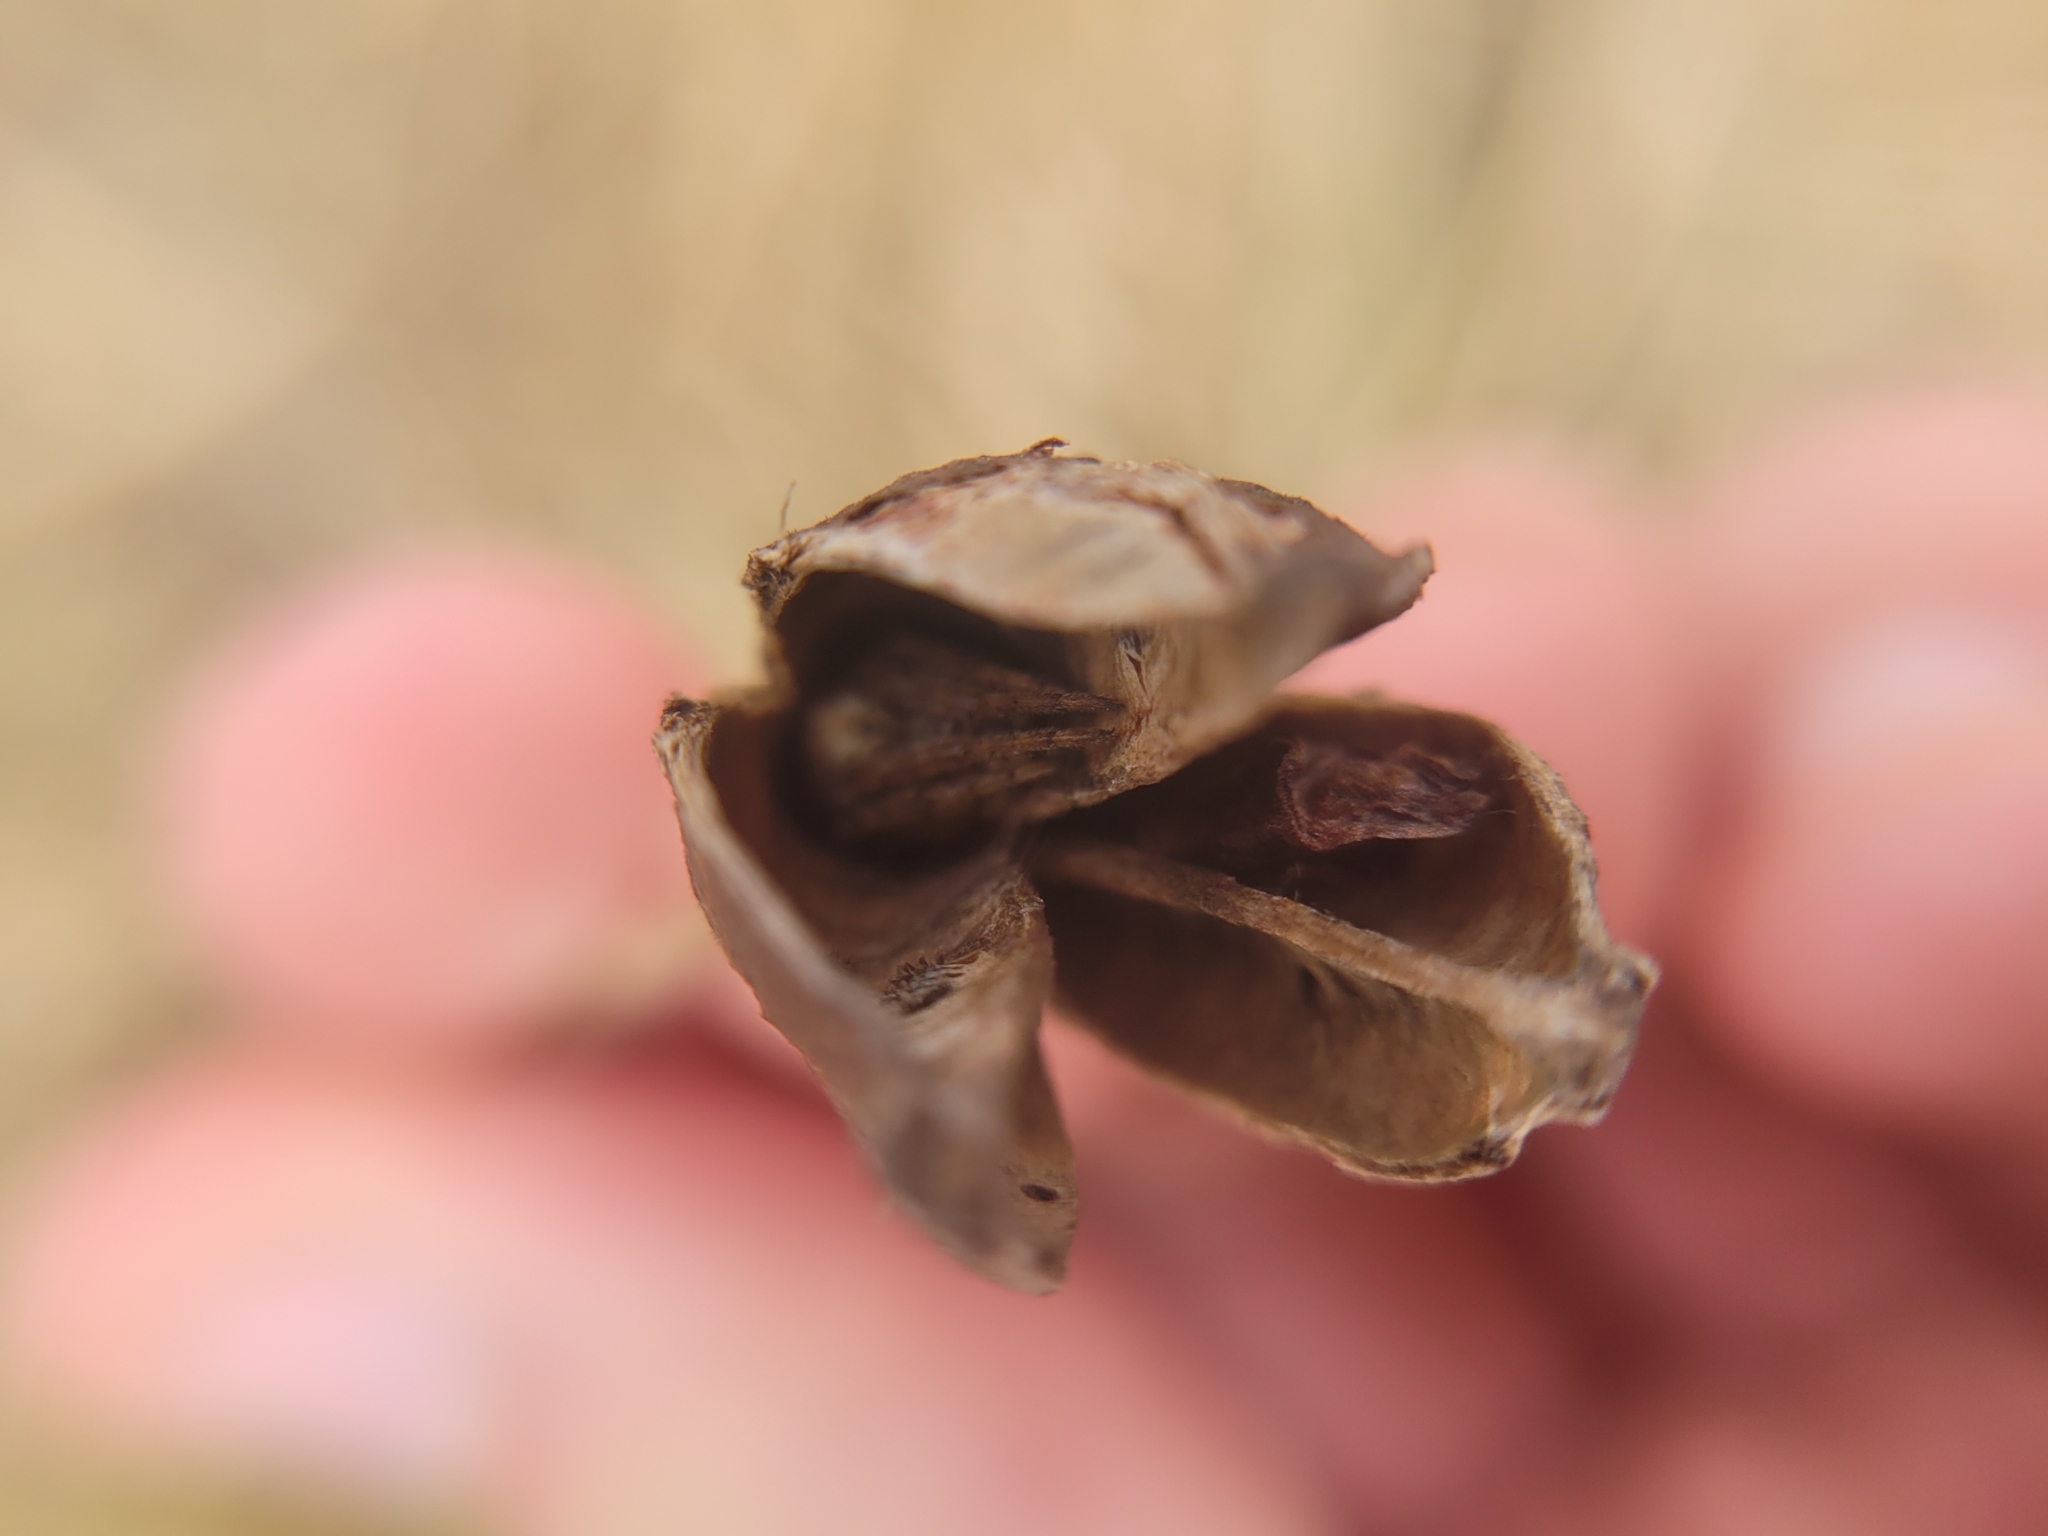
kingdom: Animalia
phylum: Arthropoda
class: Arachnida
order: Araneae
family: Araneidae
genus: Agalenatea
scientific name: Agalenatea redii
